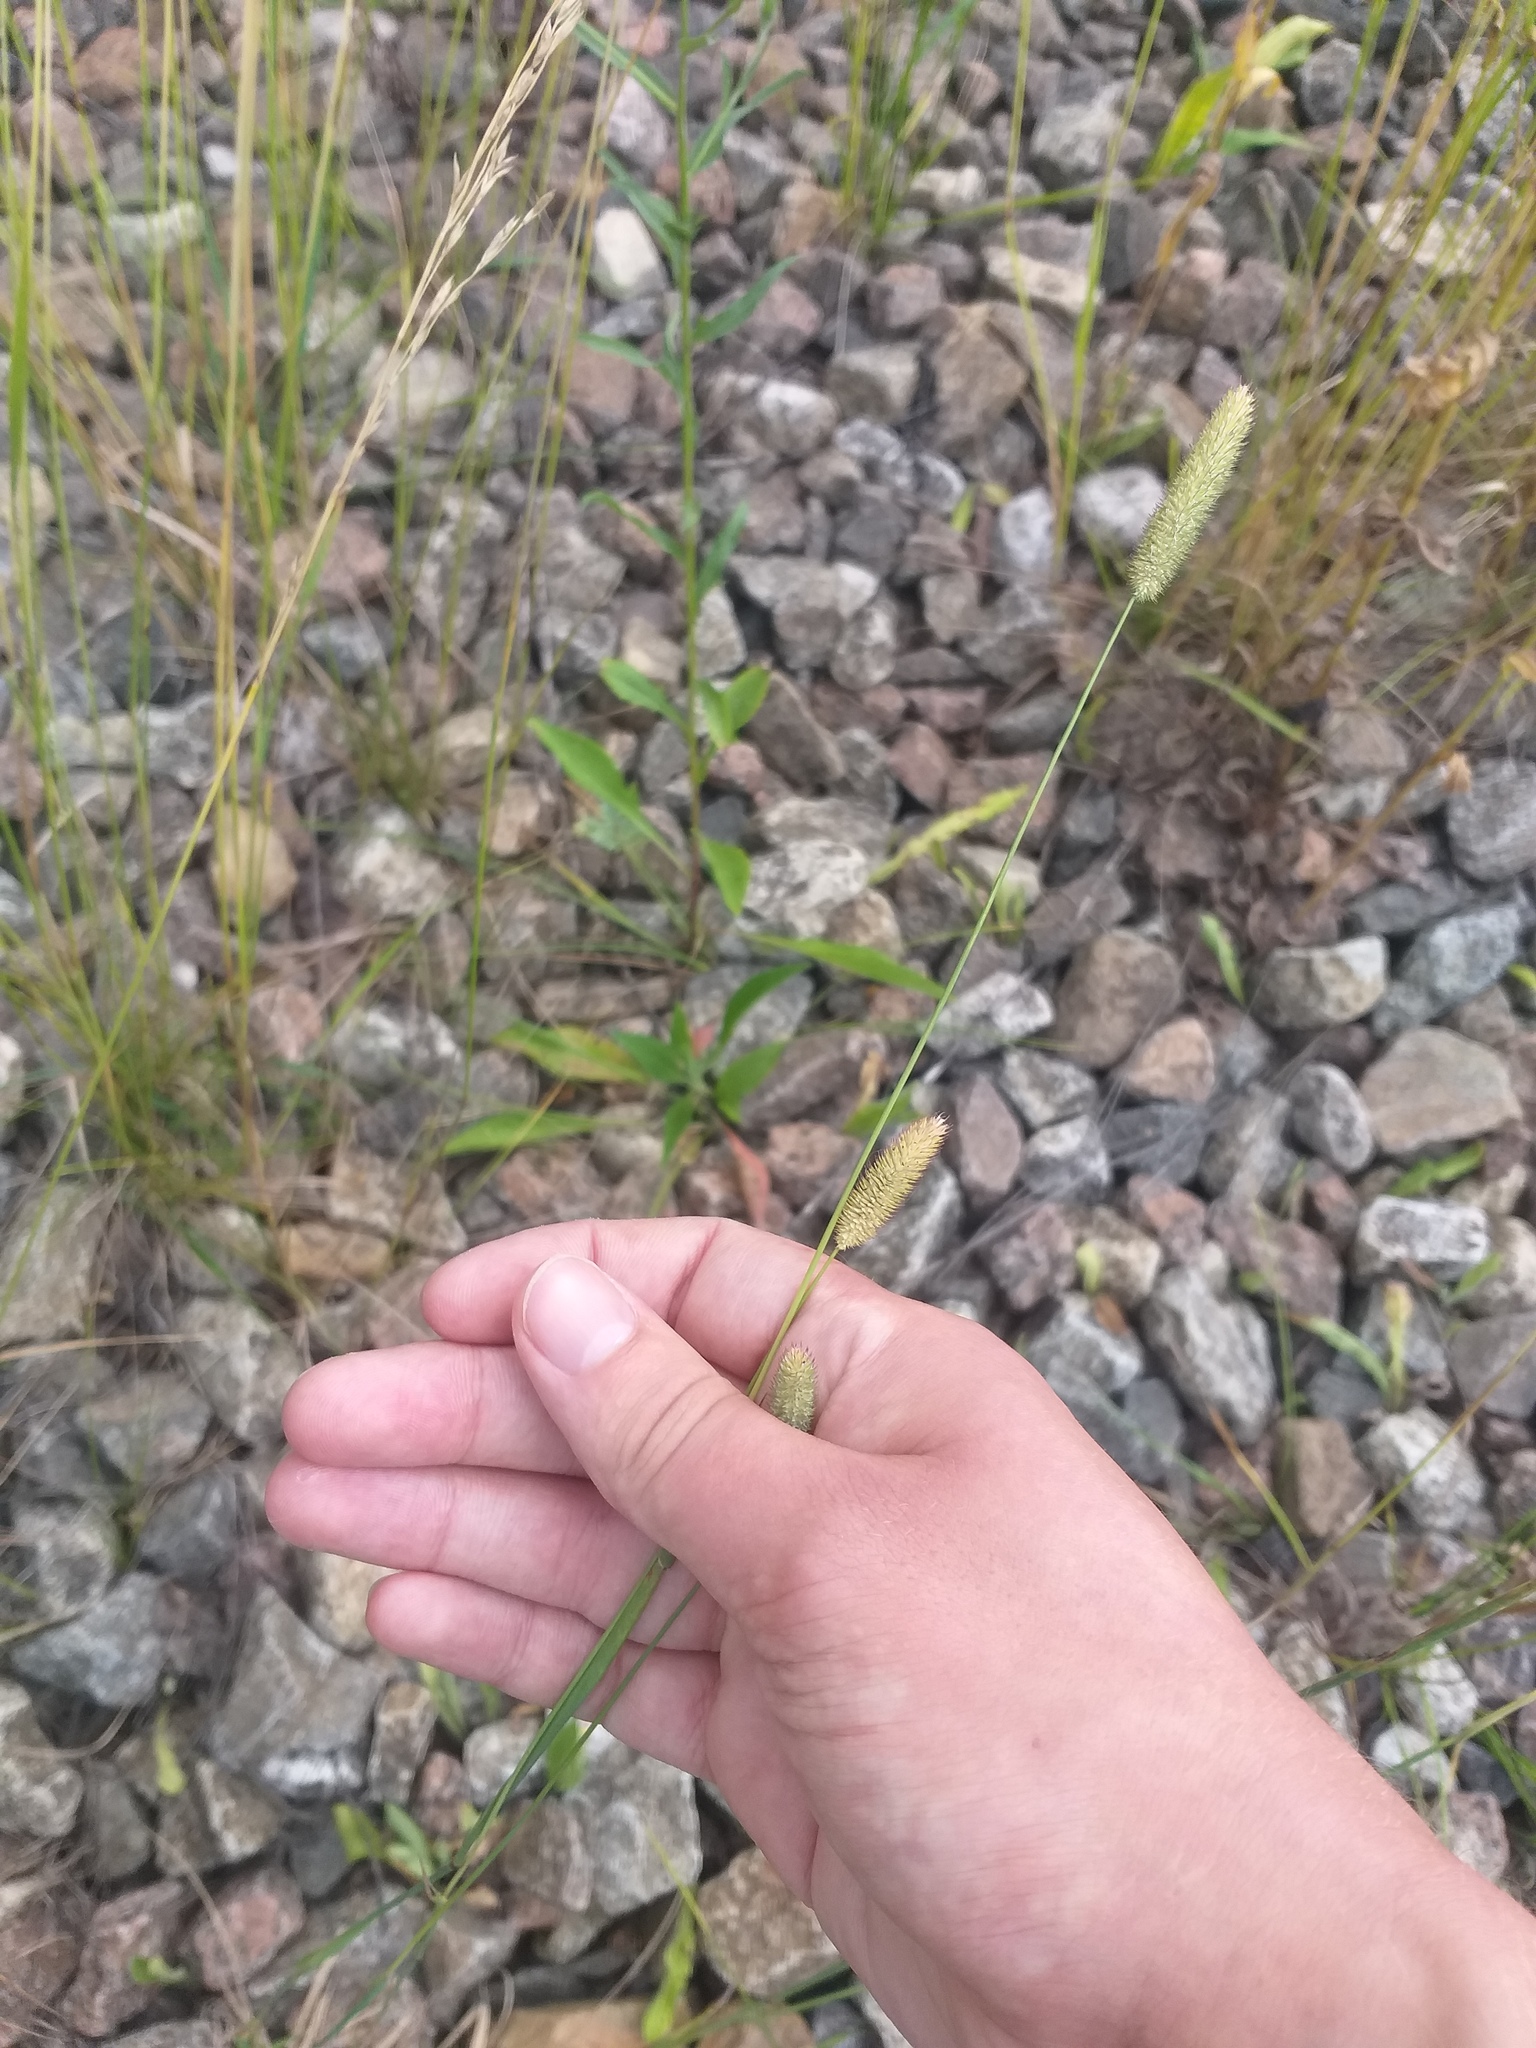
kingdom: Plantae
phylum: Tracheophyta
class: Liliopsida
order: Poales
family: Poaceae
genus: Phleum
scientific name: Phleum pratense
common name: Timothy grass
